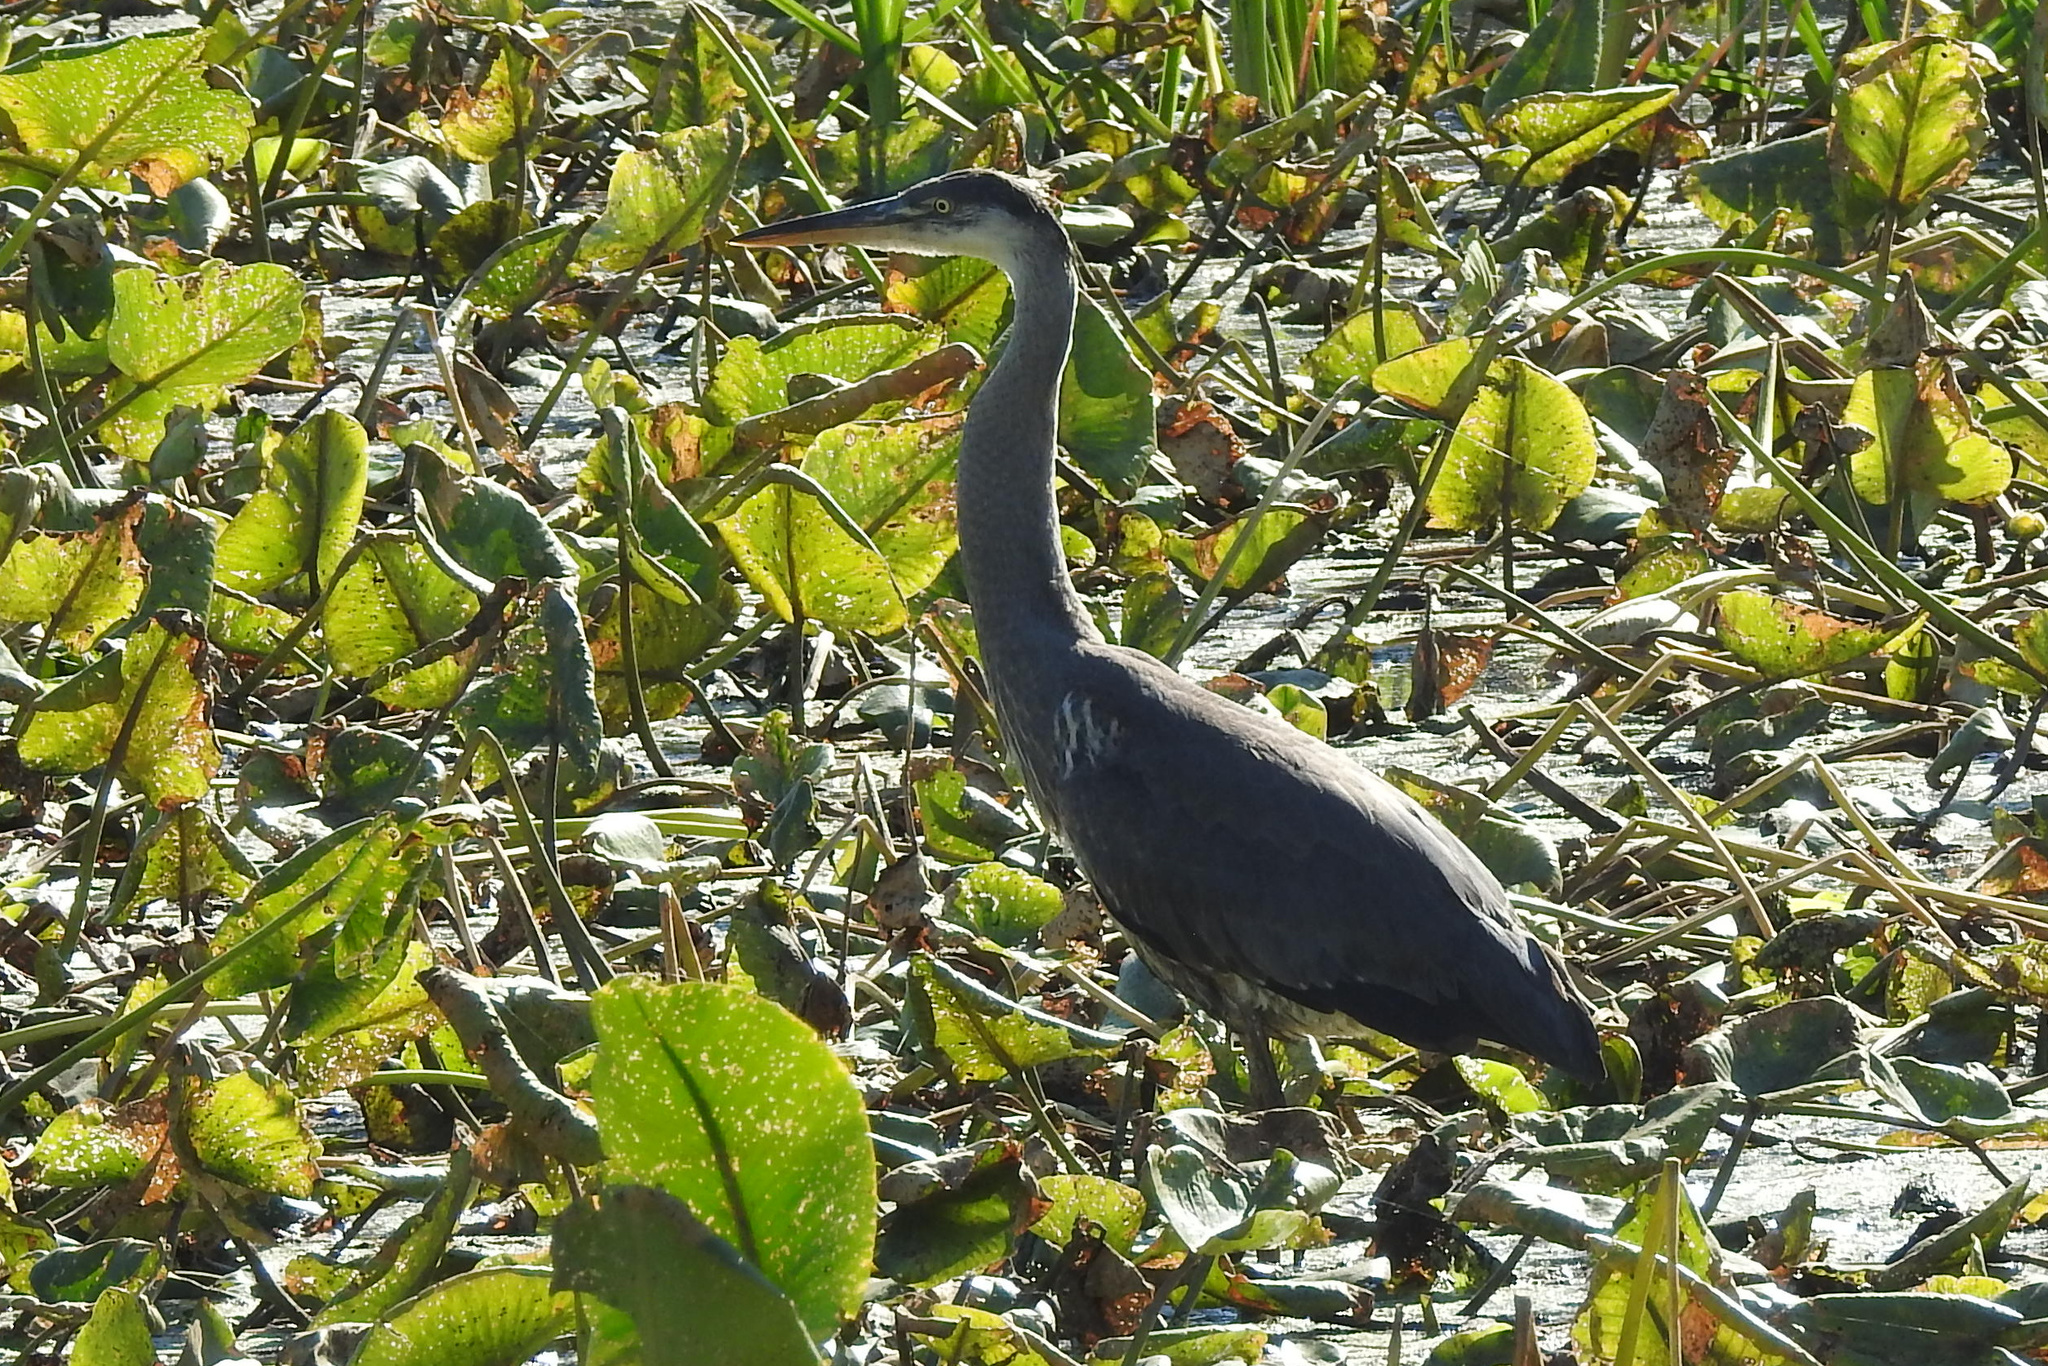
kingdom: Animalia
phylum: Chordata
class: Aves
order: Pelecaniformes
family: Ardeidae
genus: Ardea
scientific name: Ardea herodias
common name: Great blue heron
